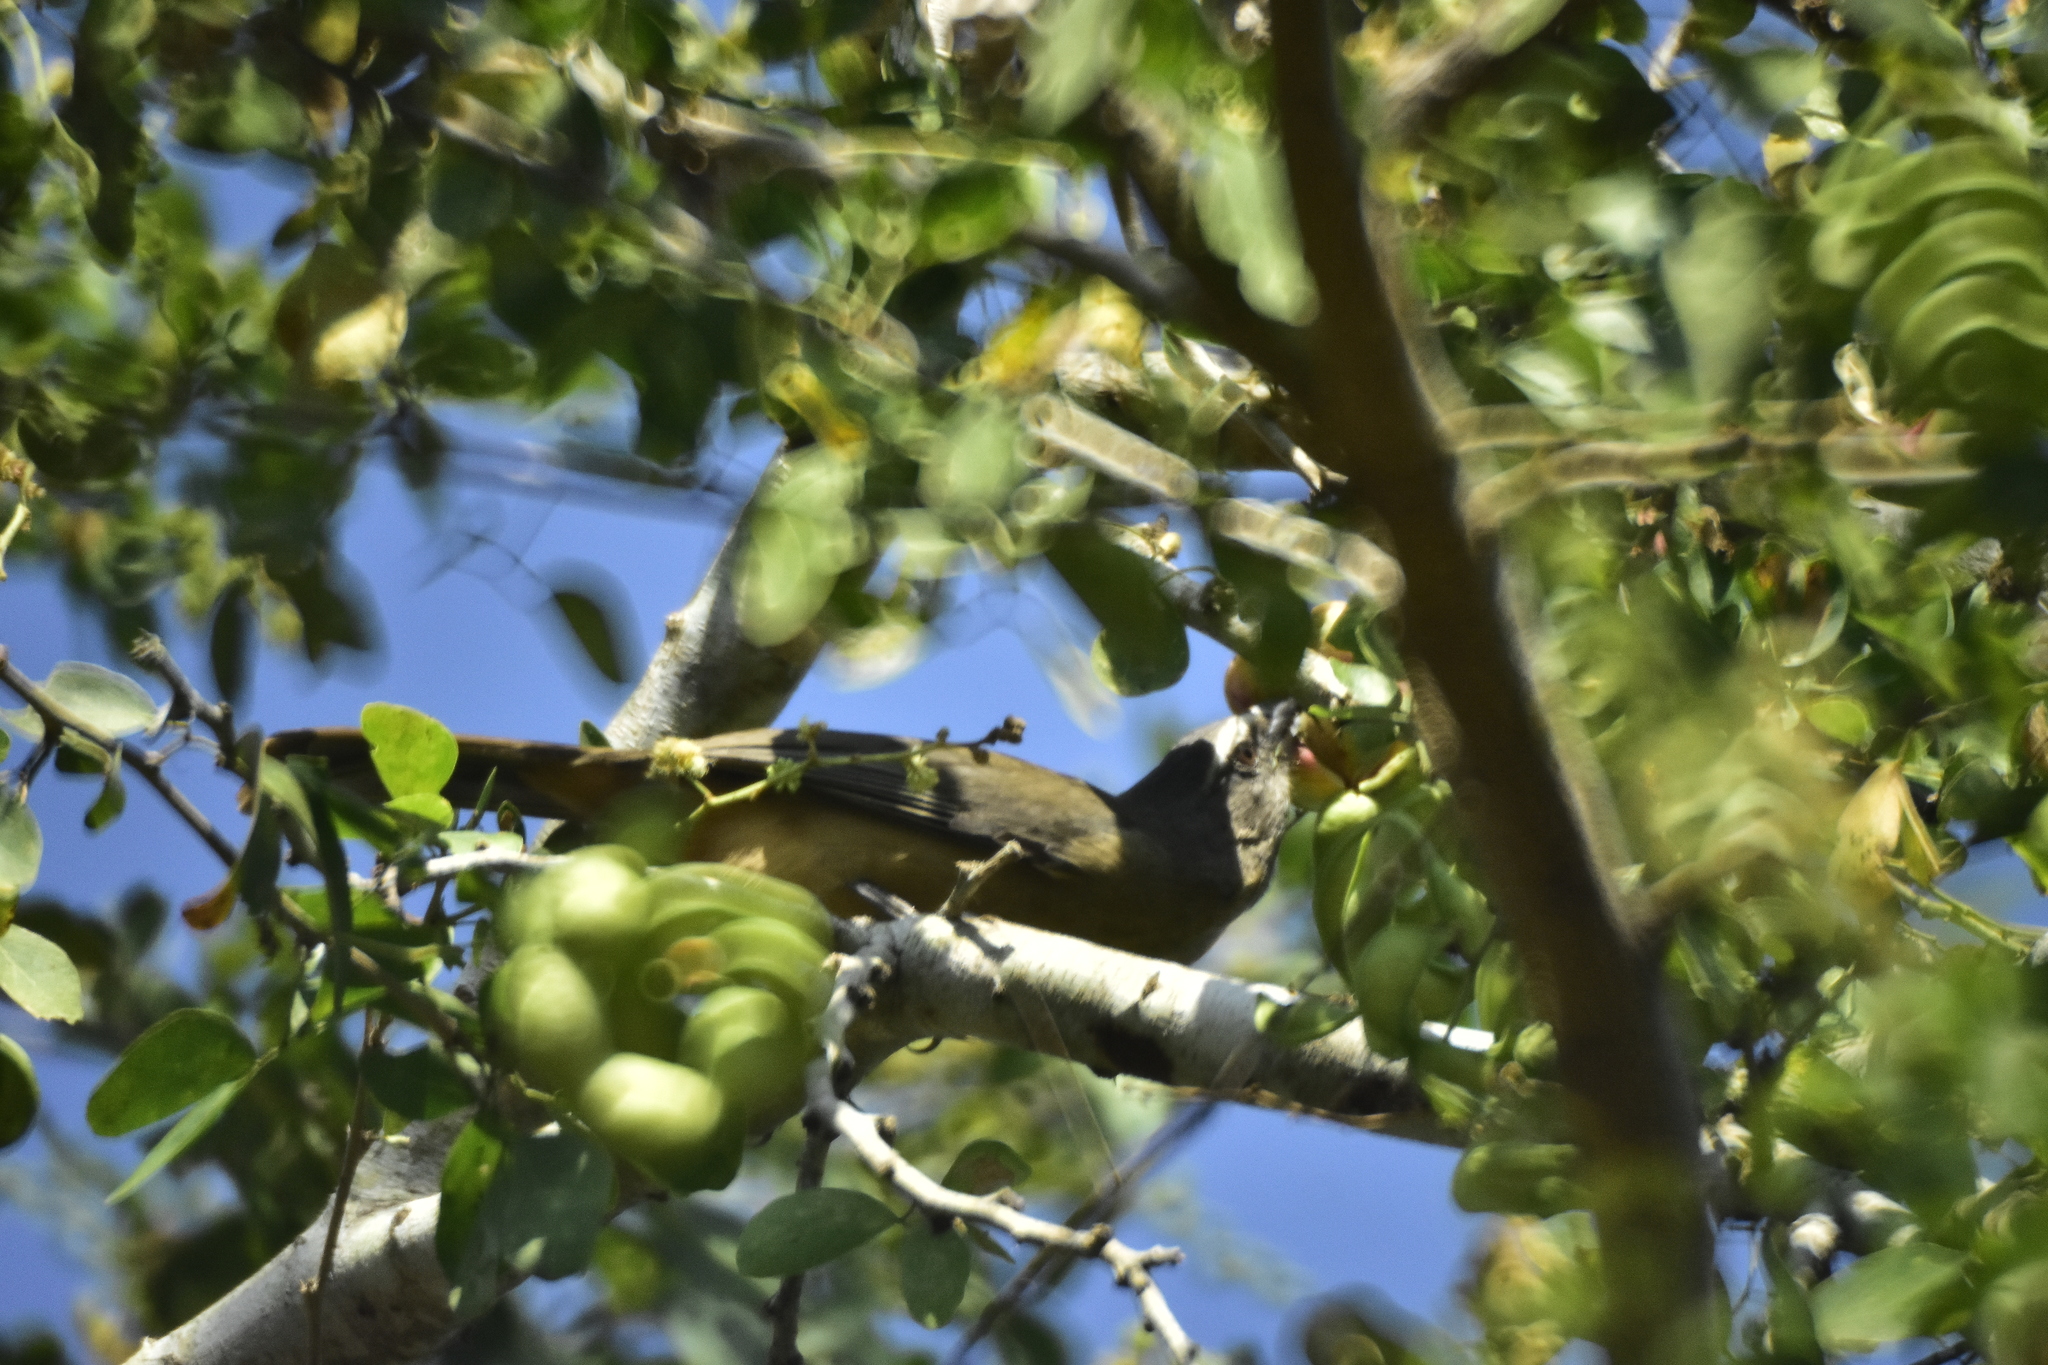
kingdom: Animalia
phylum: Chordata
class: Aves
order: Passeriformes
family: Thraupidae
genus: Saltator
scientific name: Saltator grandis
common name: Cinnamon-bellied saltator
